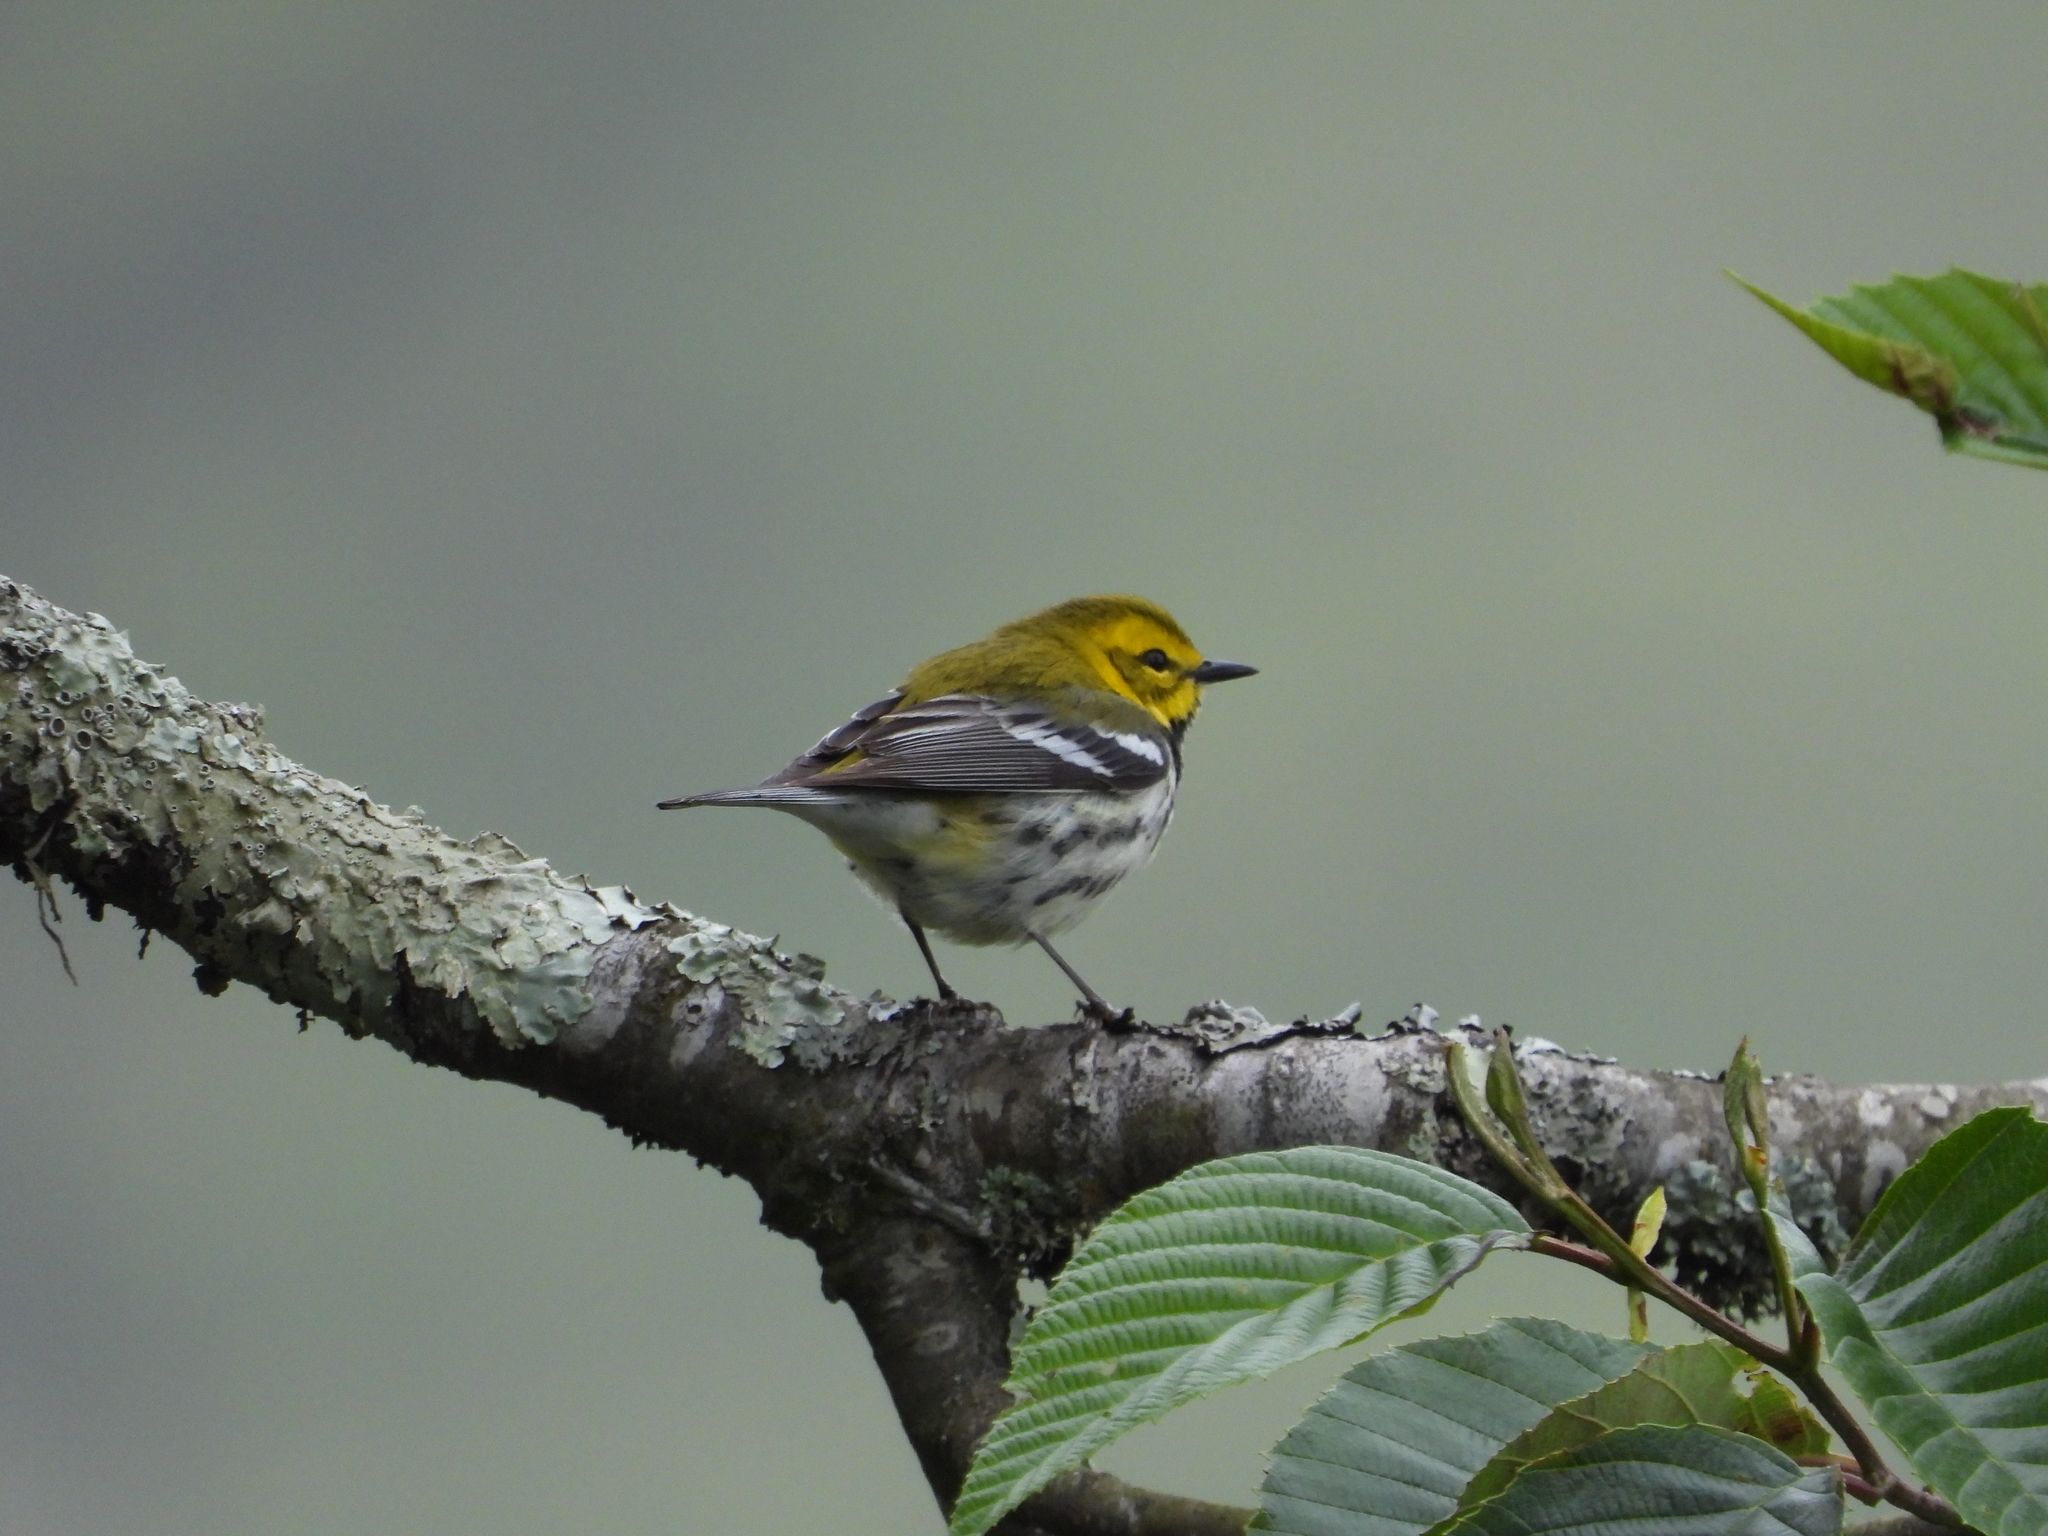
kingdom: Animalia
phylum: Chordata
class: Aves
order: Passeriformes
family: Parulidae
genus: Setophaga
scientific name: Setophaga virens
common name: Black-throated green warbler
